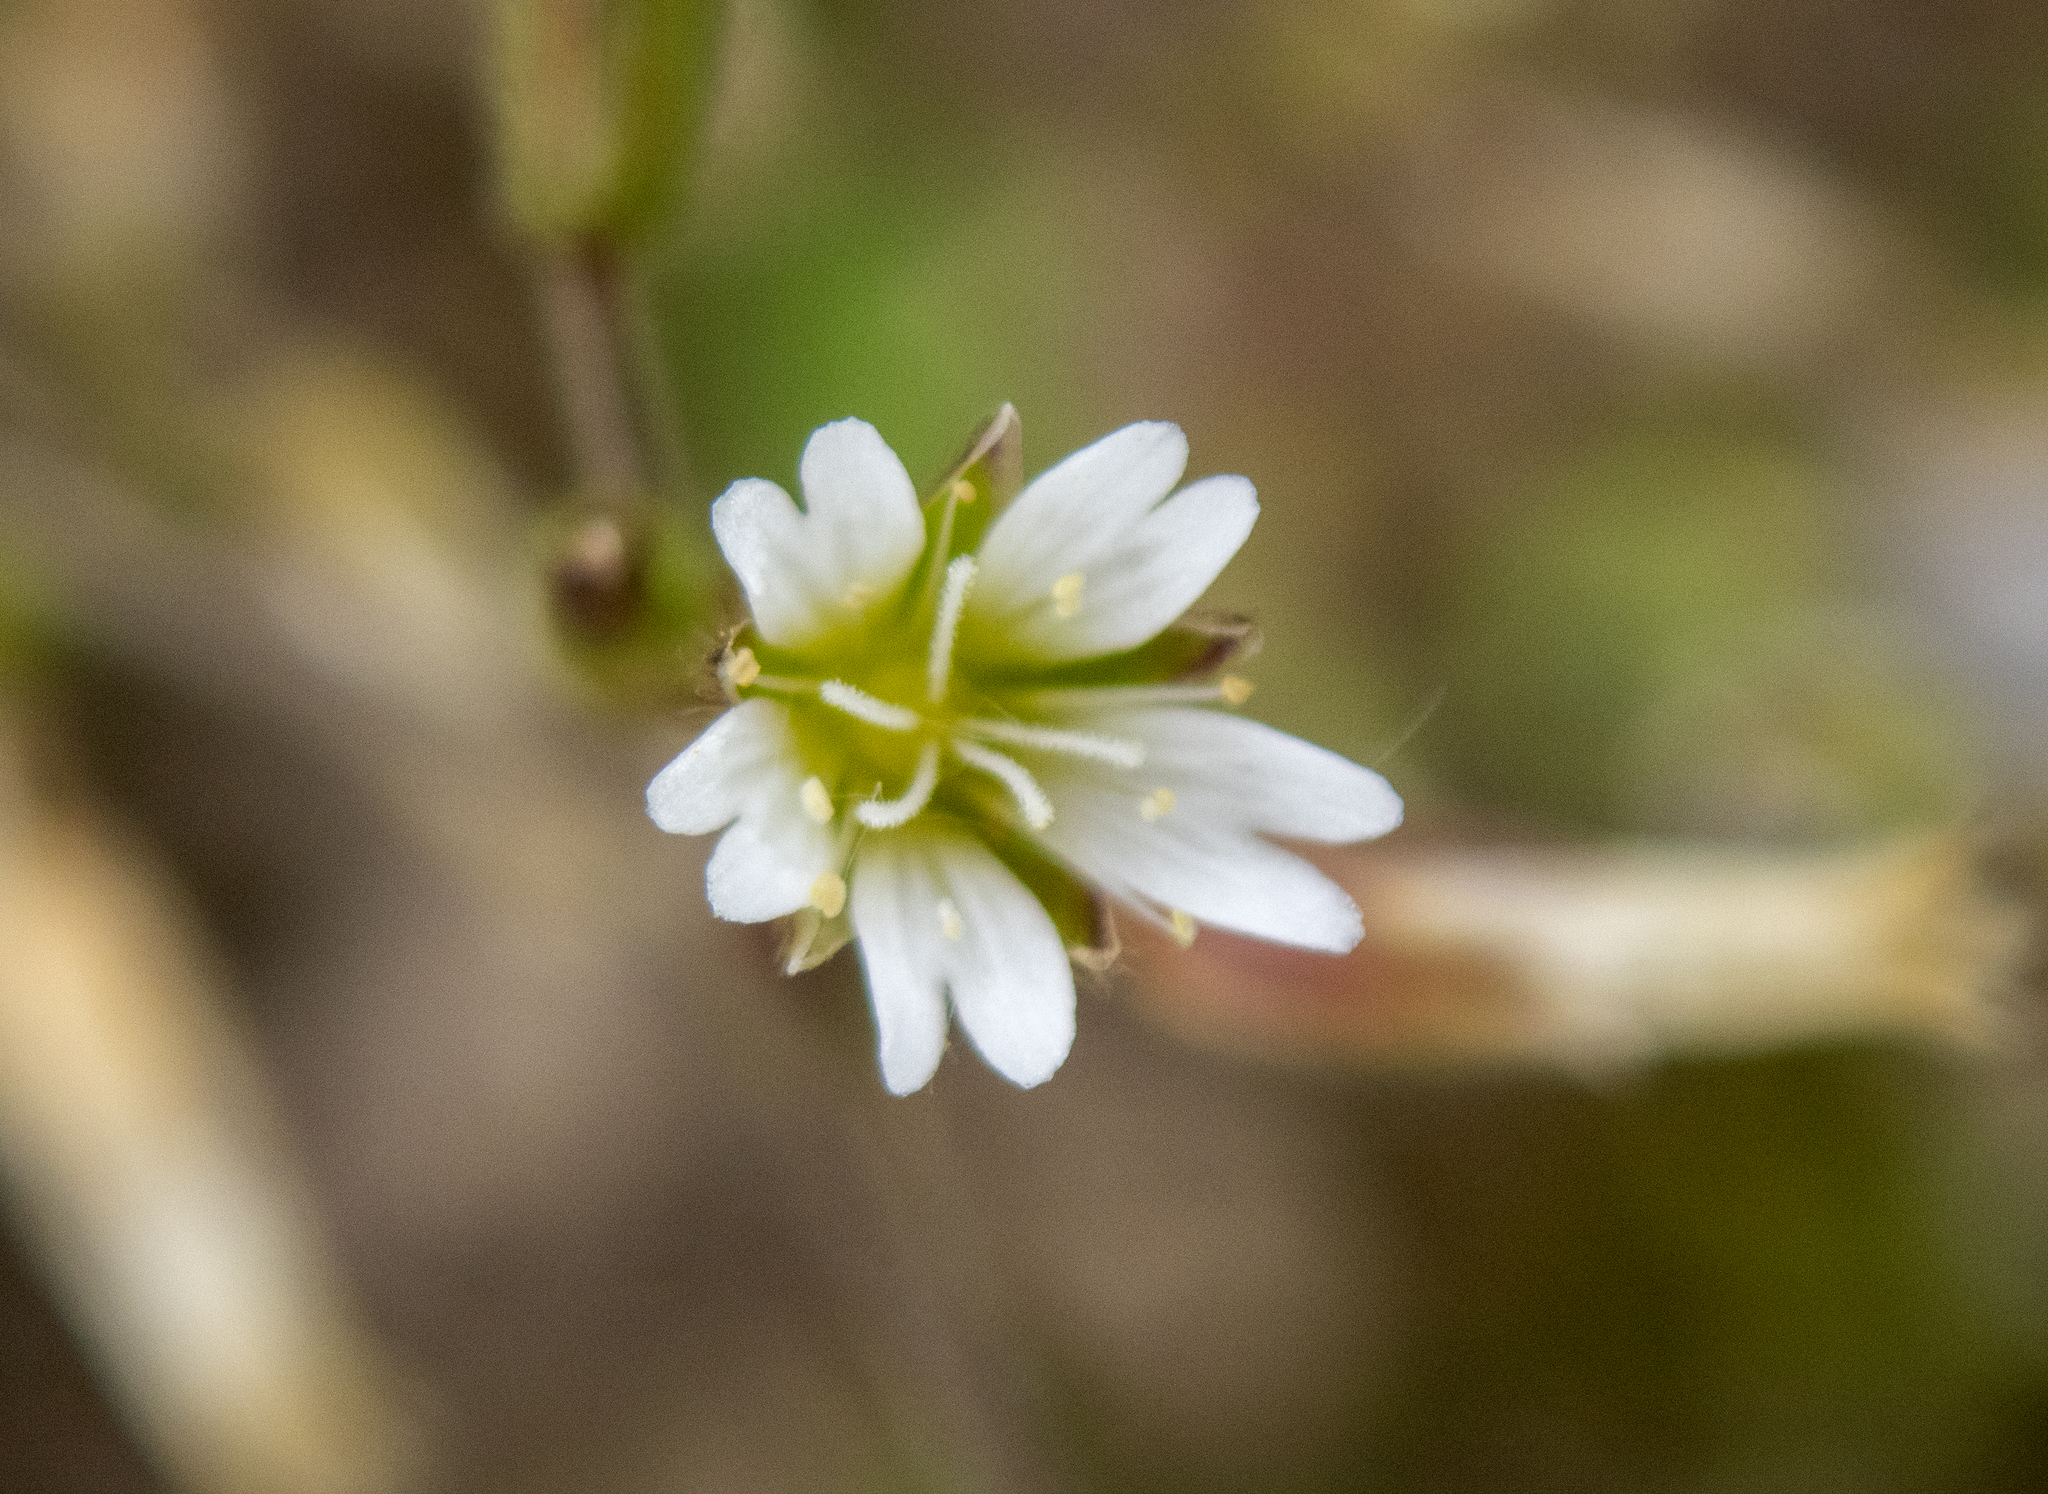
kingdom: Plantae
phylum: Tracheophyta
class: Magnoliopsida
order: Caryophyllales
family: Caryophyllaceae
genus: Cerastium
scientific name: Cerastium fontanum
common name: Common mouse-ear
